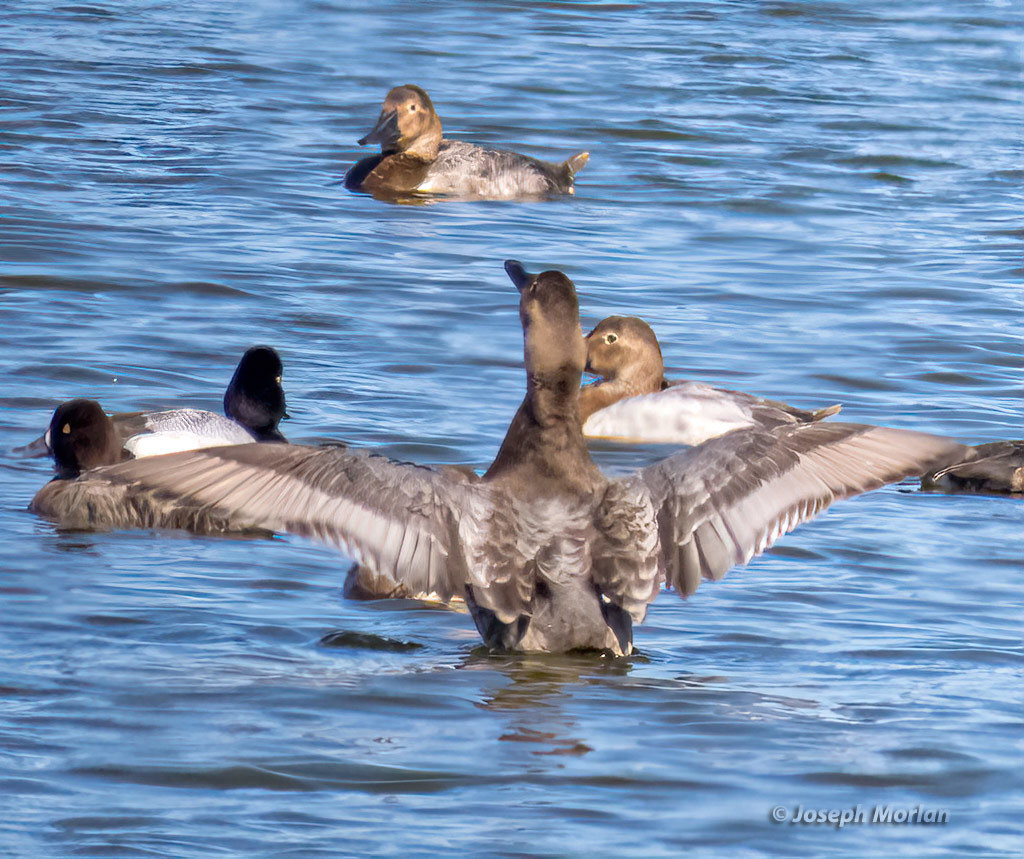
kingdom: Animalia
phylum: Chordata
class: Aves
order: Anseriformes
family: Anatidae
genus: Aythya
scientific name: Aythya valisineria
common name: Canvasback
